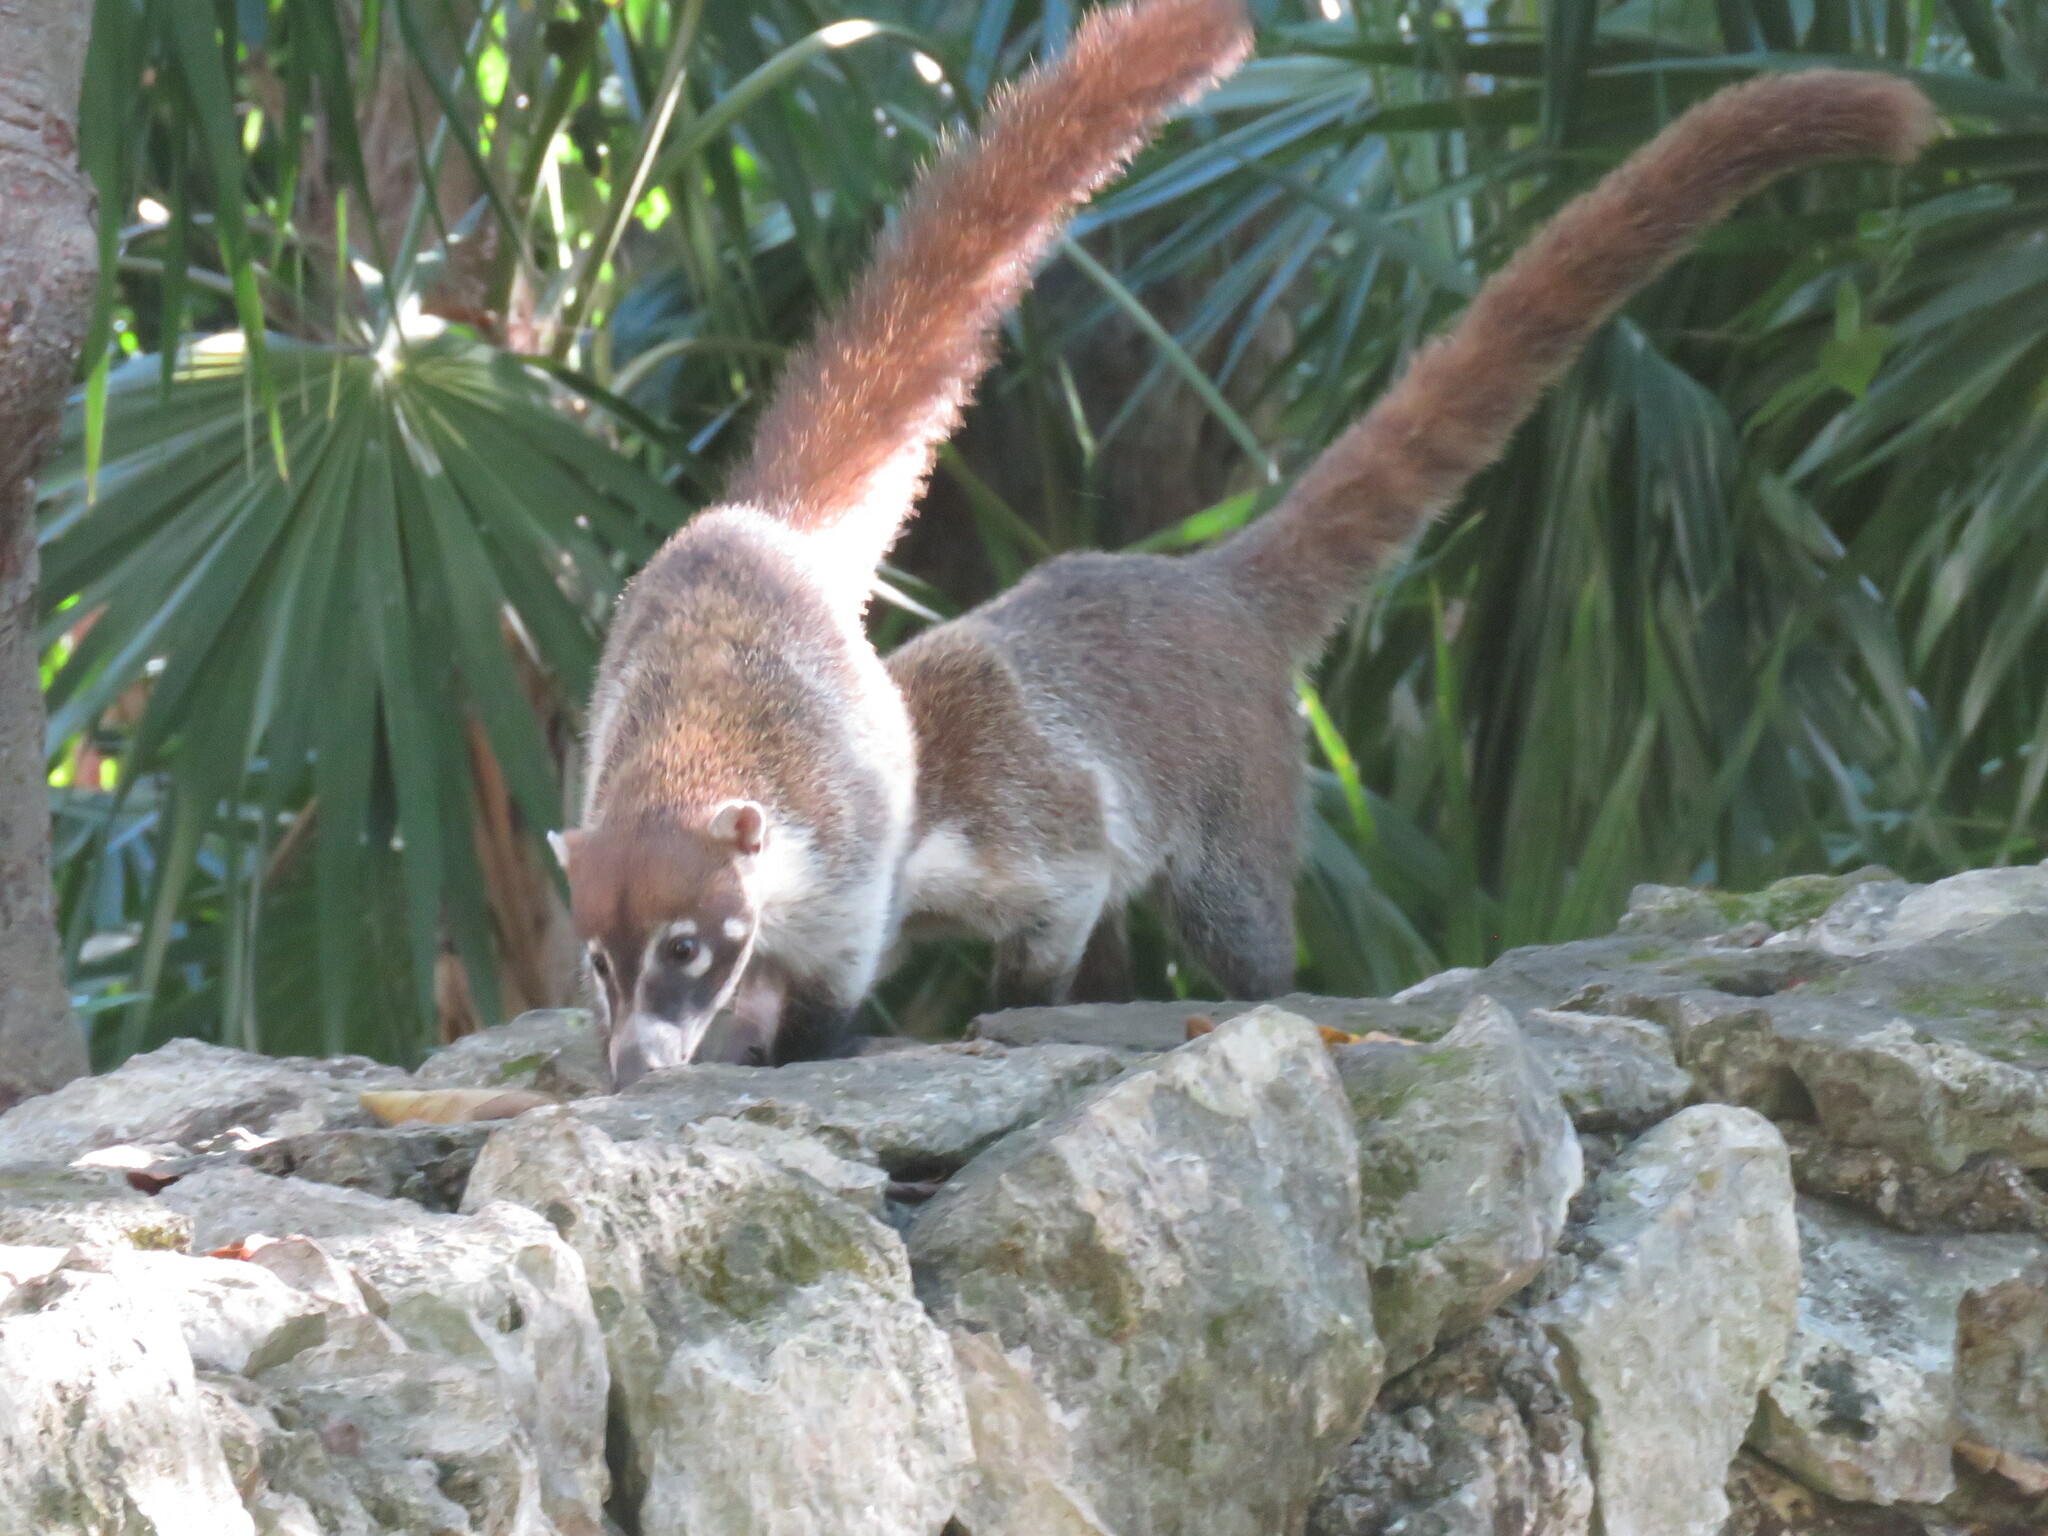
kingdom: Animalia
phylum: Chordata
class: Mammalia
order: Carnivora
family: Procyonidae
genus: Nasua
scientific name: Nasua narica
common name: White-nosed coati
